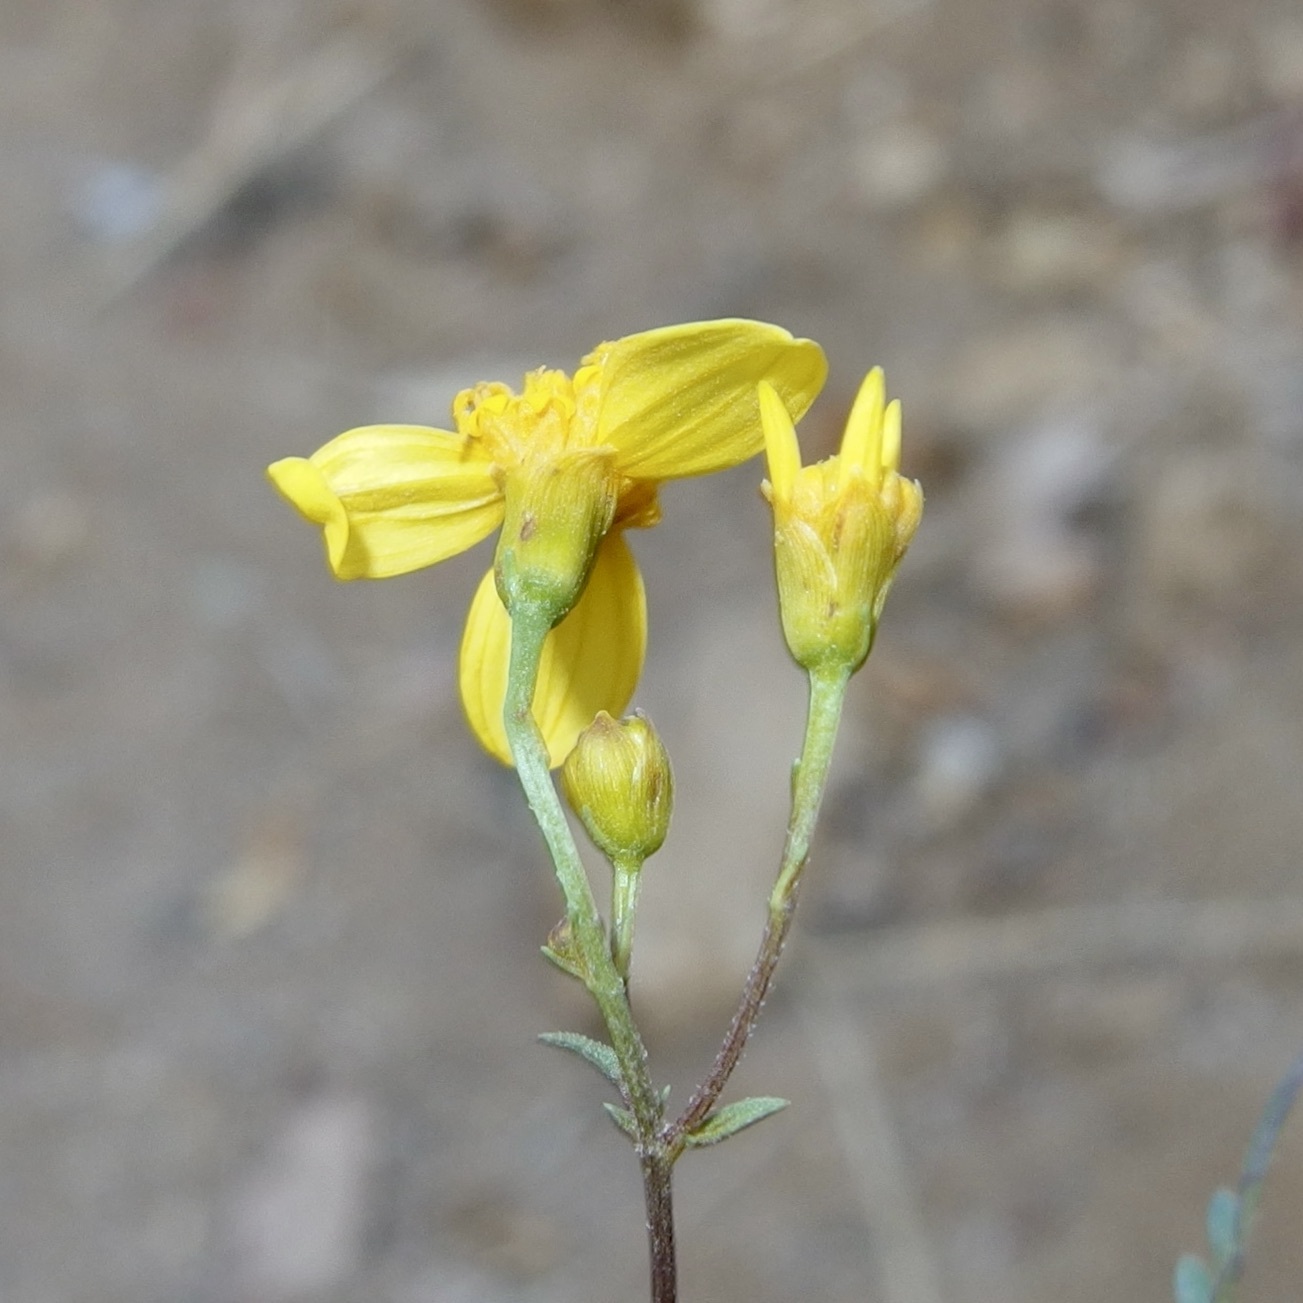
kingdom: Plantae
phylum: Tracheophyta
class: Magnoliopsida
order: Asterales
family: Asteraceae
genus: Coreocarpus
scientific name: Coreocarpus parthenioides
